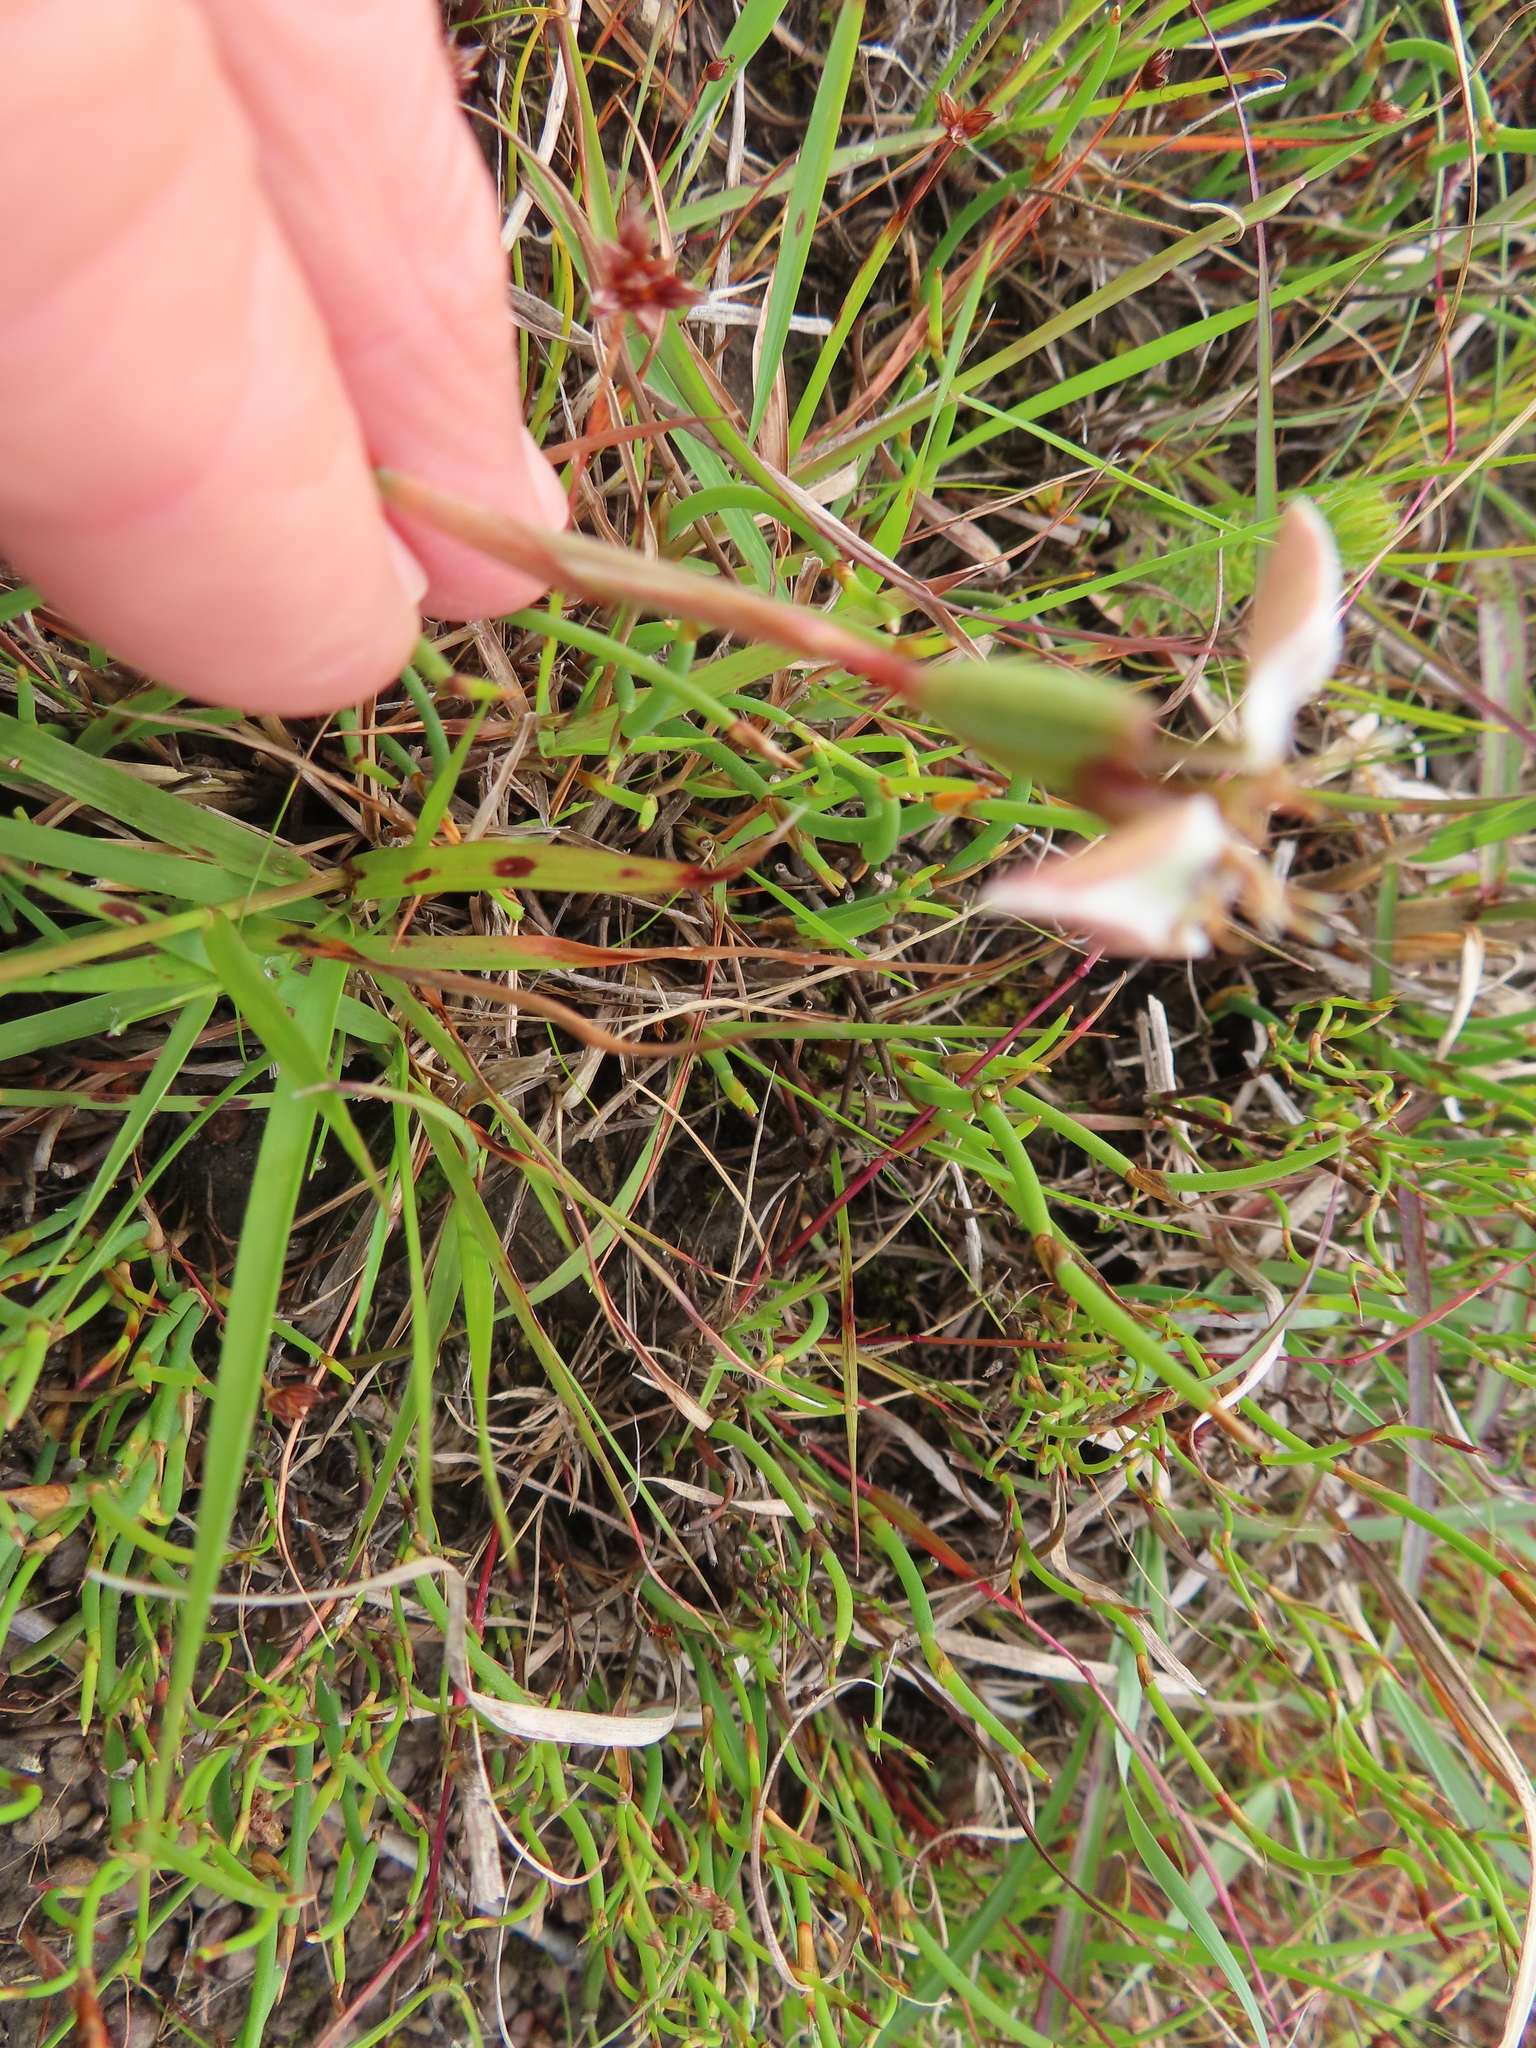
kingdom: Plantae
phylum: Tracheophyta
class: Liliopsida
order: Asparagales
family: Iridaceae
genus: Moraea
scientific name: Moraea unguiculata
